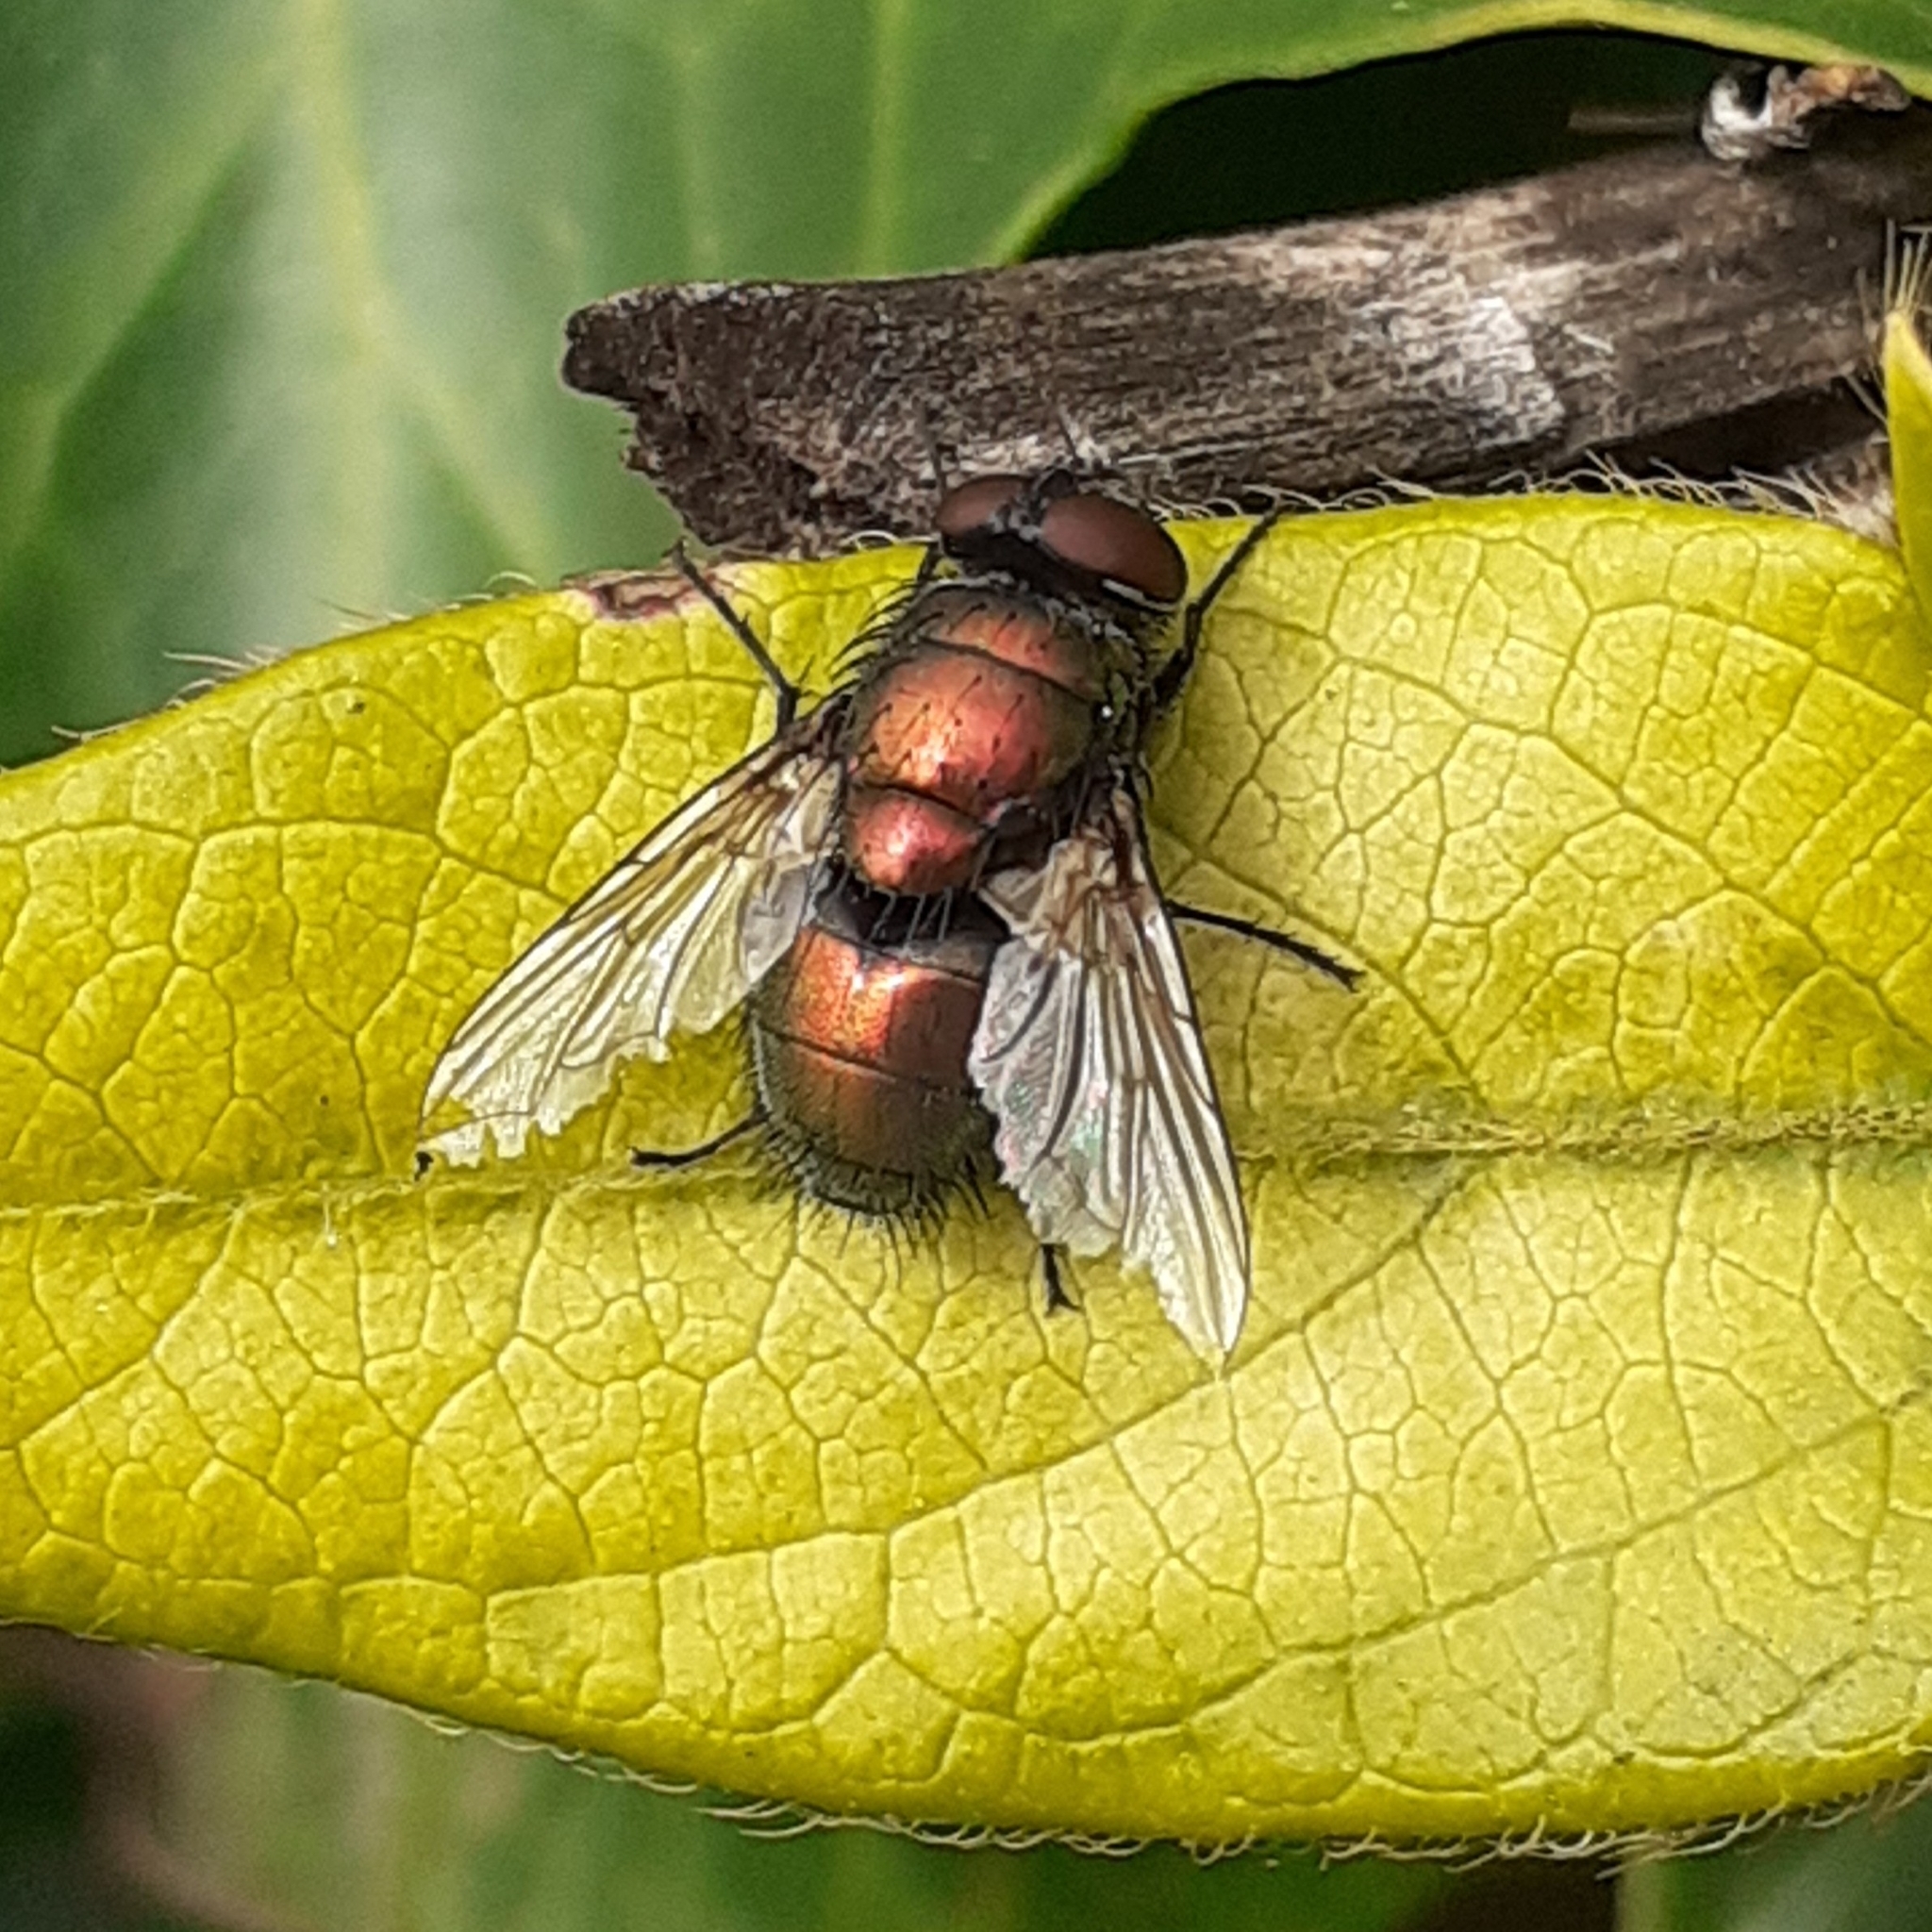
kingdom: Animalia
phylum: Arthropoda
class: Insecta
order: Diptera
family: Calliphoridae
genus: Lucilia
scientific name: Lucilia
